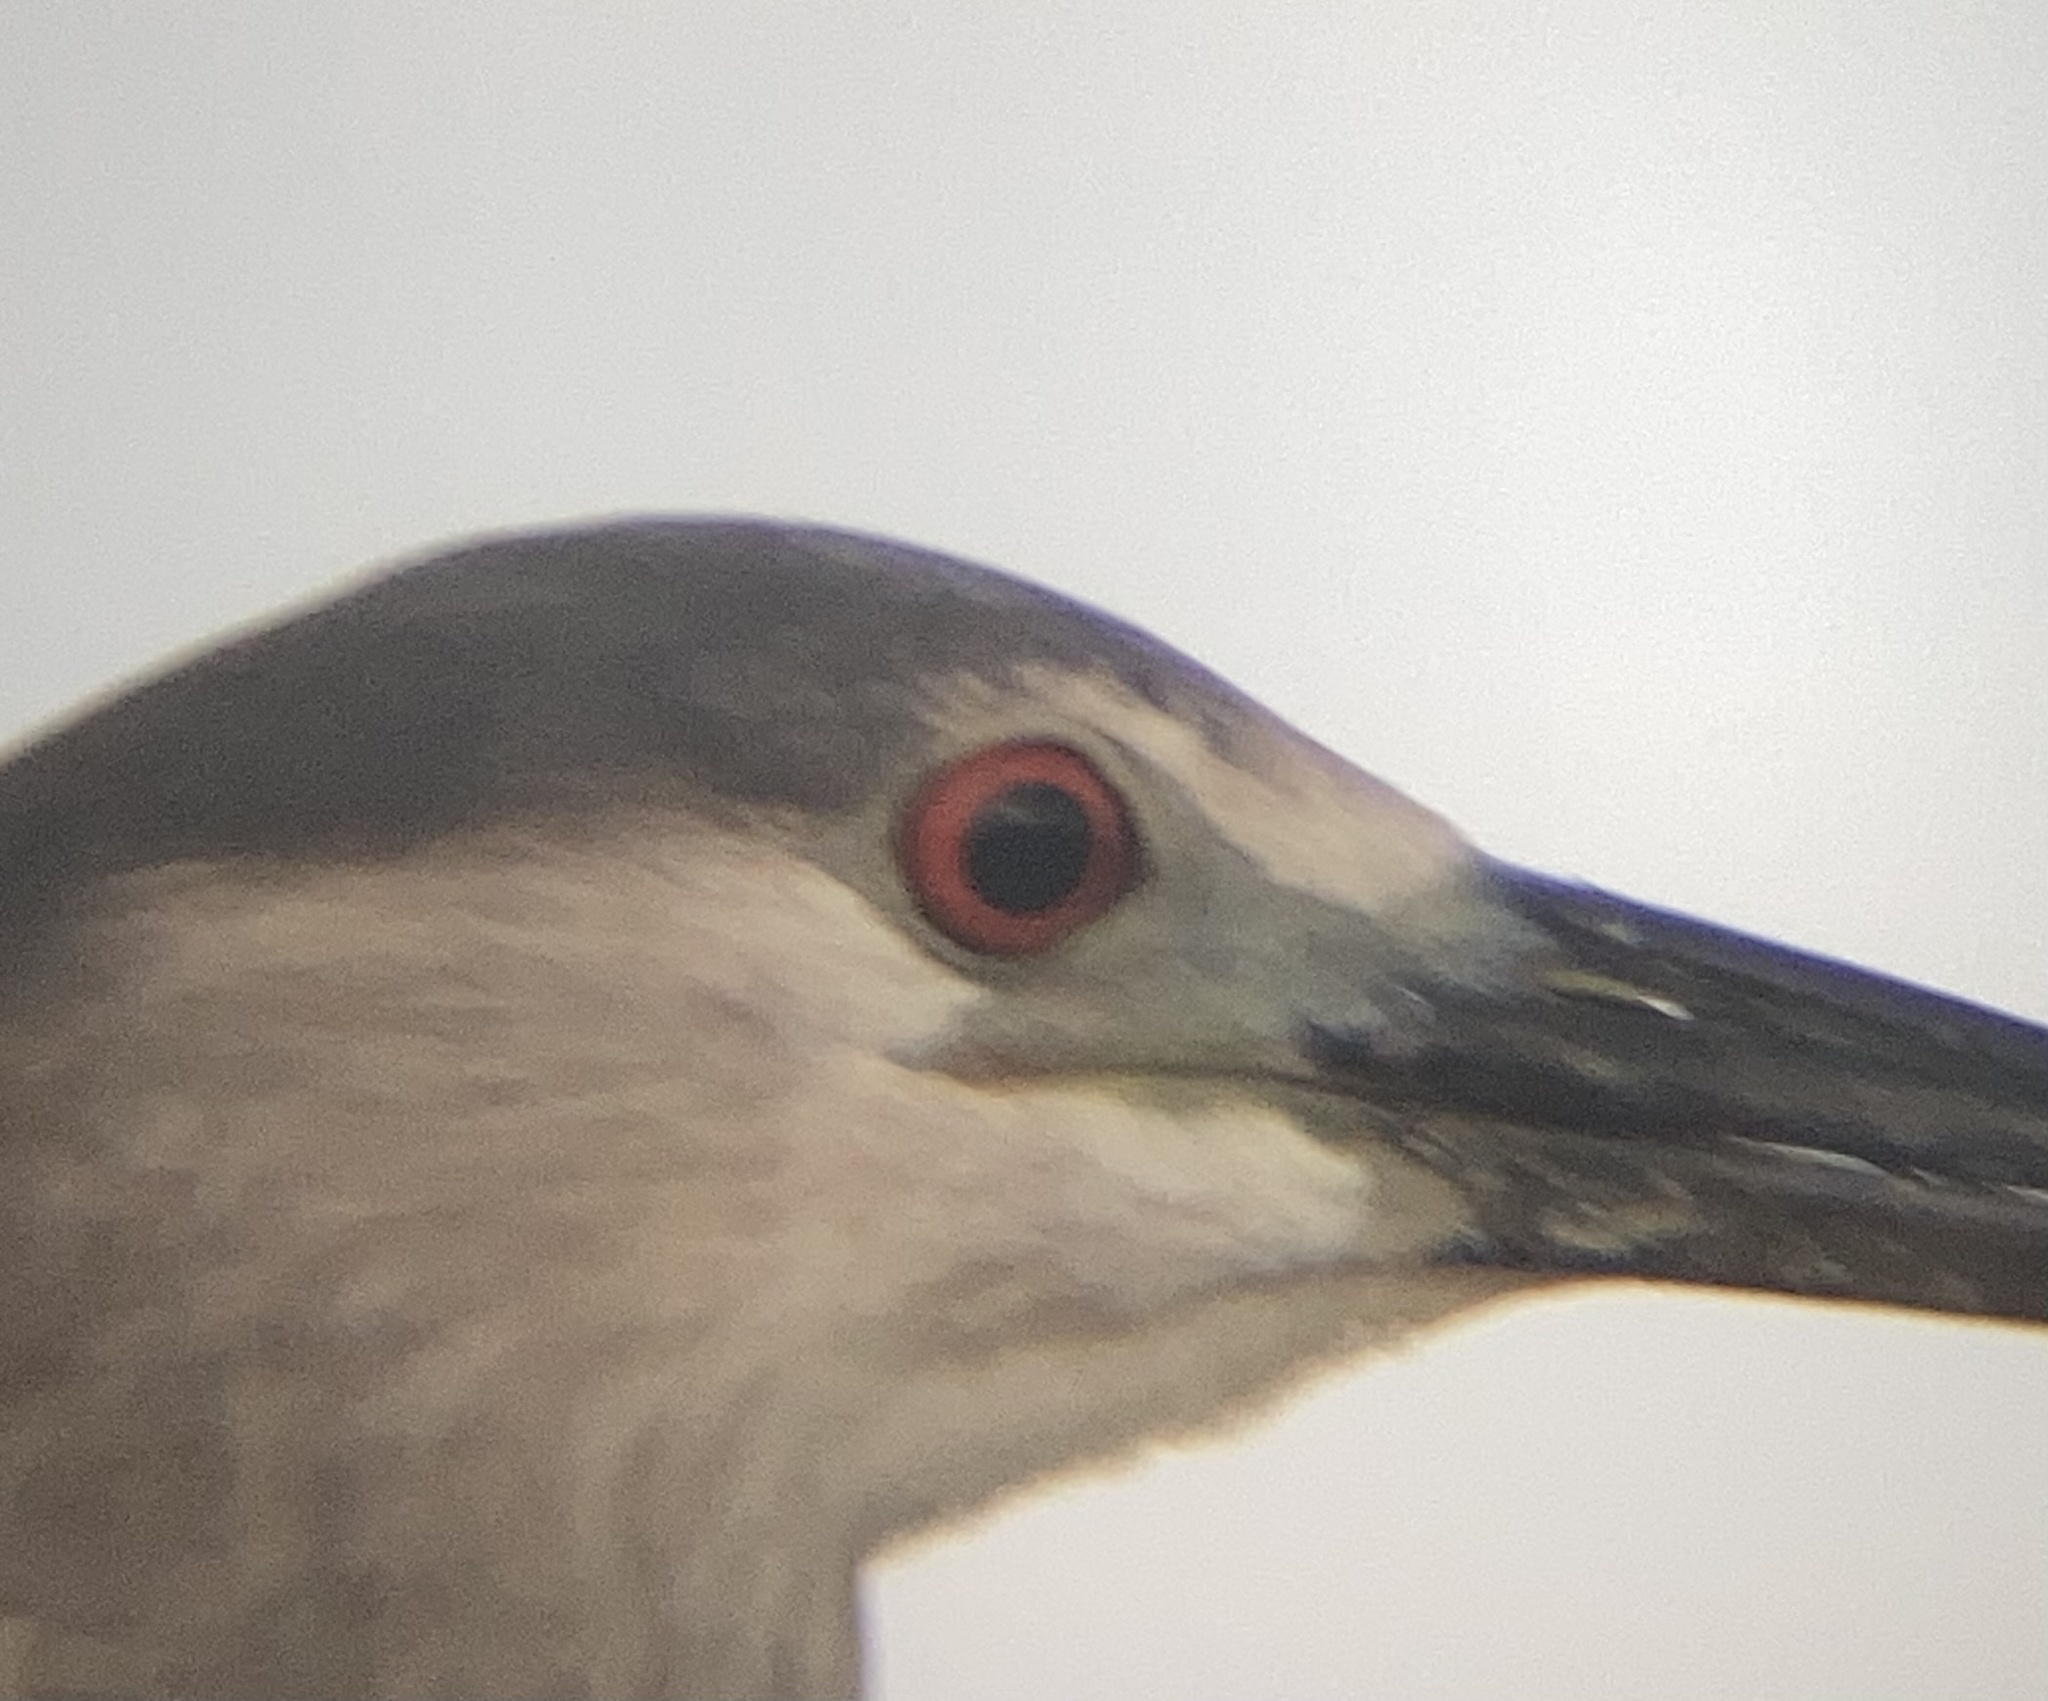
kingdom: Animalia
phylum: Chordata
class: Aves
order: Pelecaniformes
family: Ardeidae
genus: Nycticorax
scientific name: Nycticorax nycticorax
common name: Black-crowned night heron
